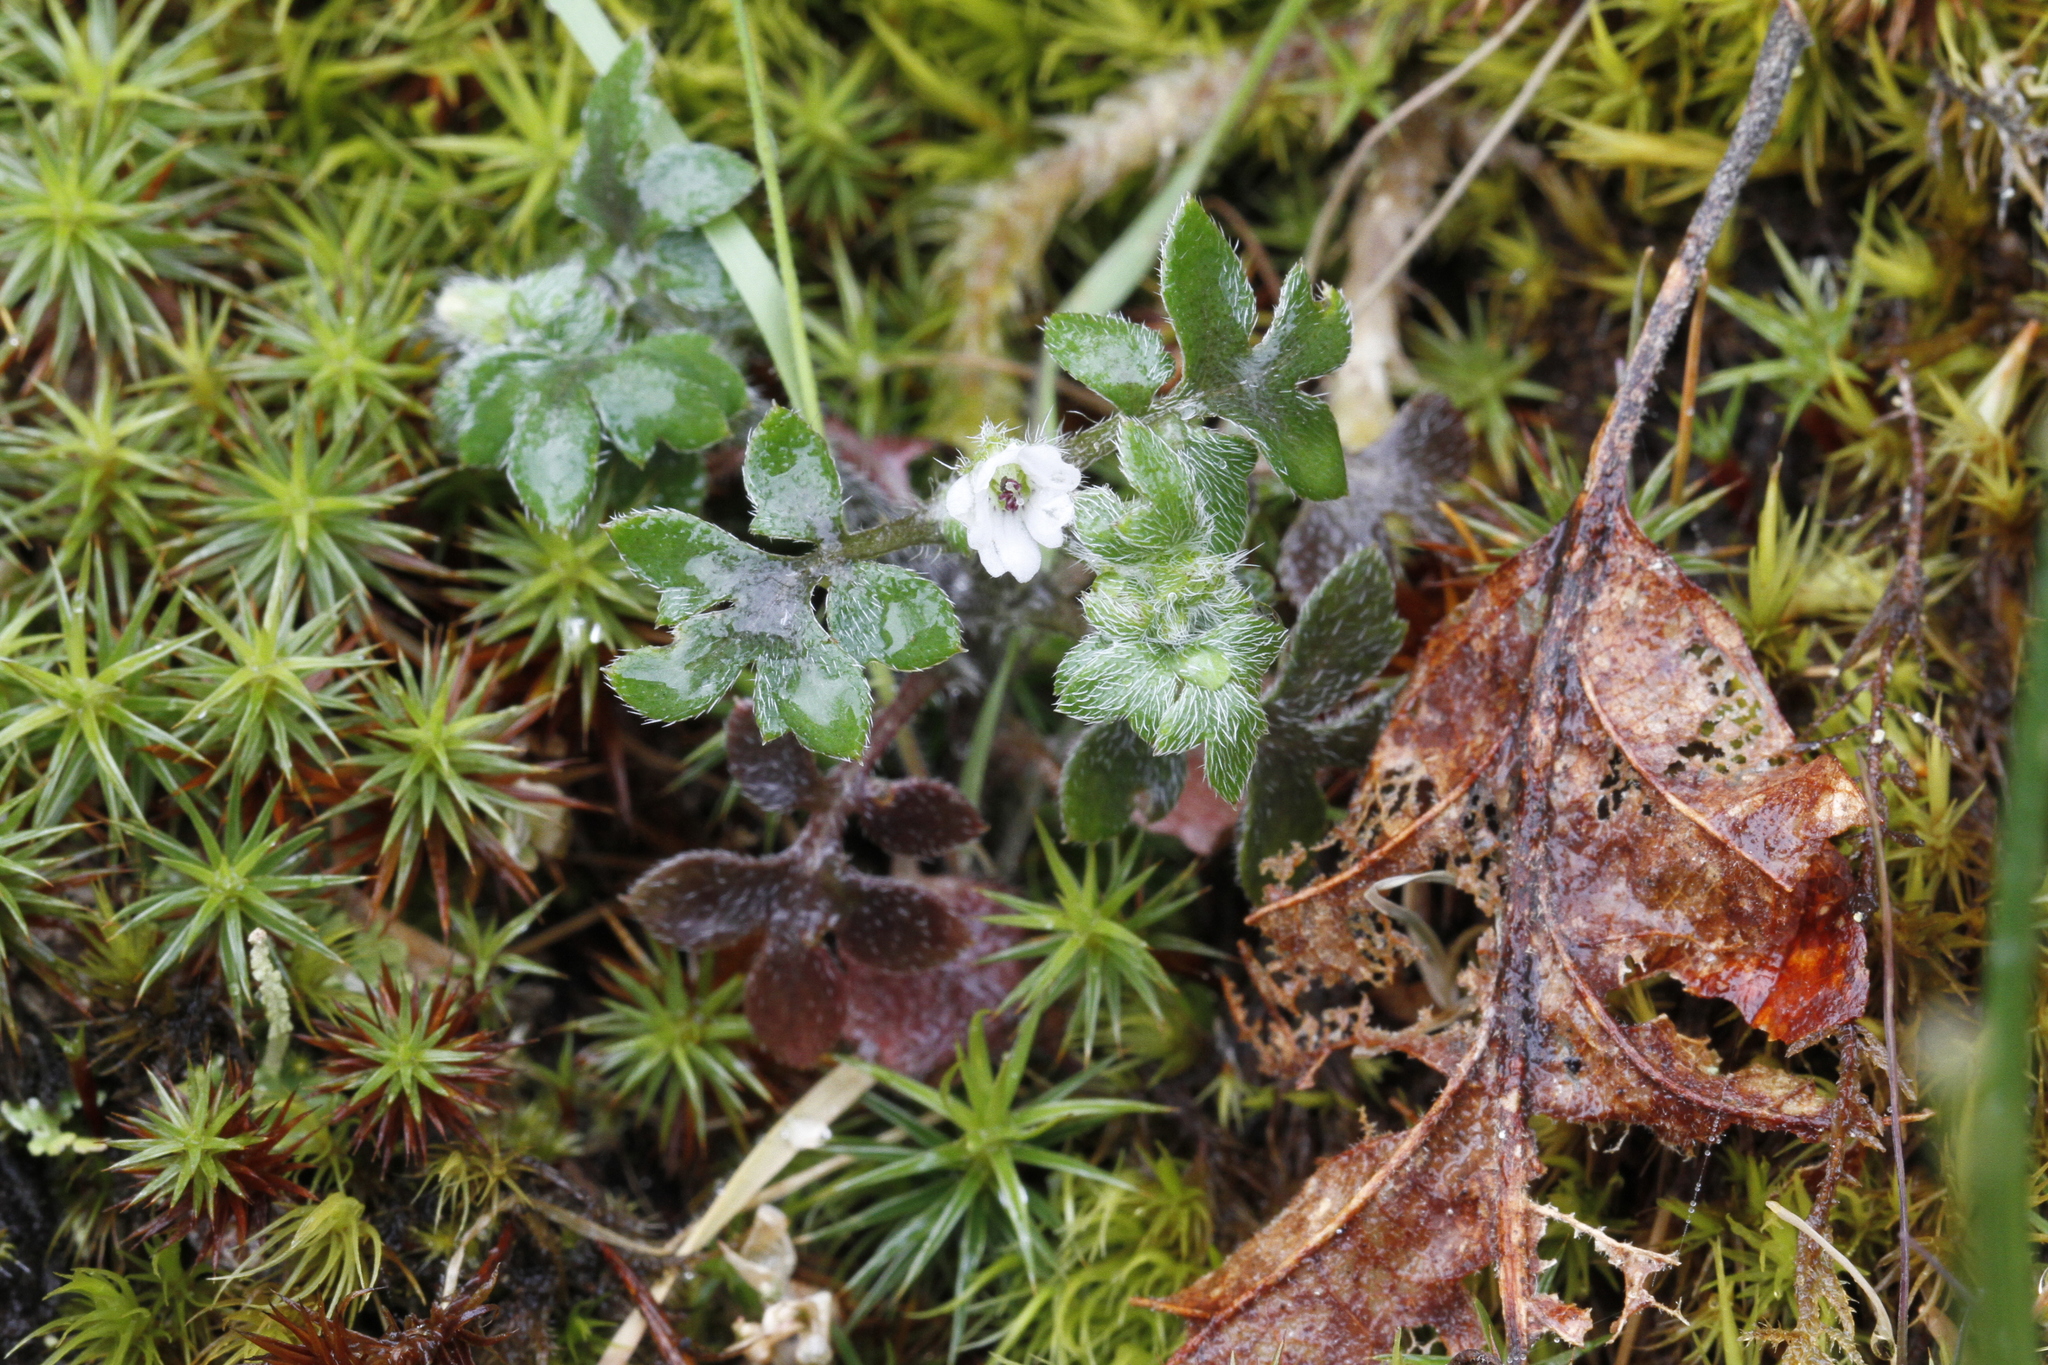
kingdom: Plantae
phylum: Tracheophyta
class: Magnoliopsida
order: Boraginales
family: Hydrophyllaceae
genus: Nemophila
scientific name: Nemophila pedunculata
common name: Little-foot baby-blue-eyes
